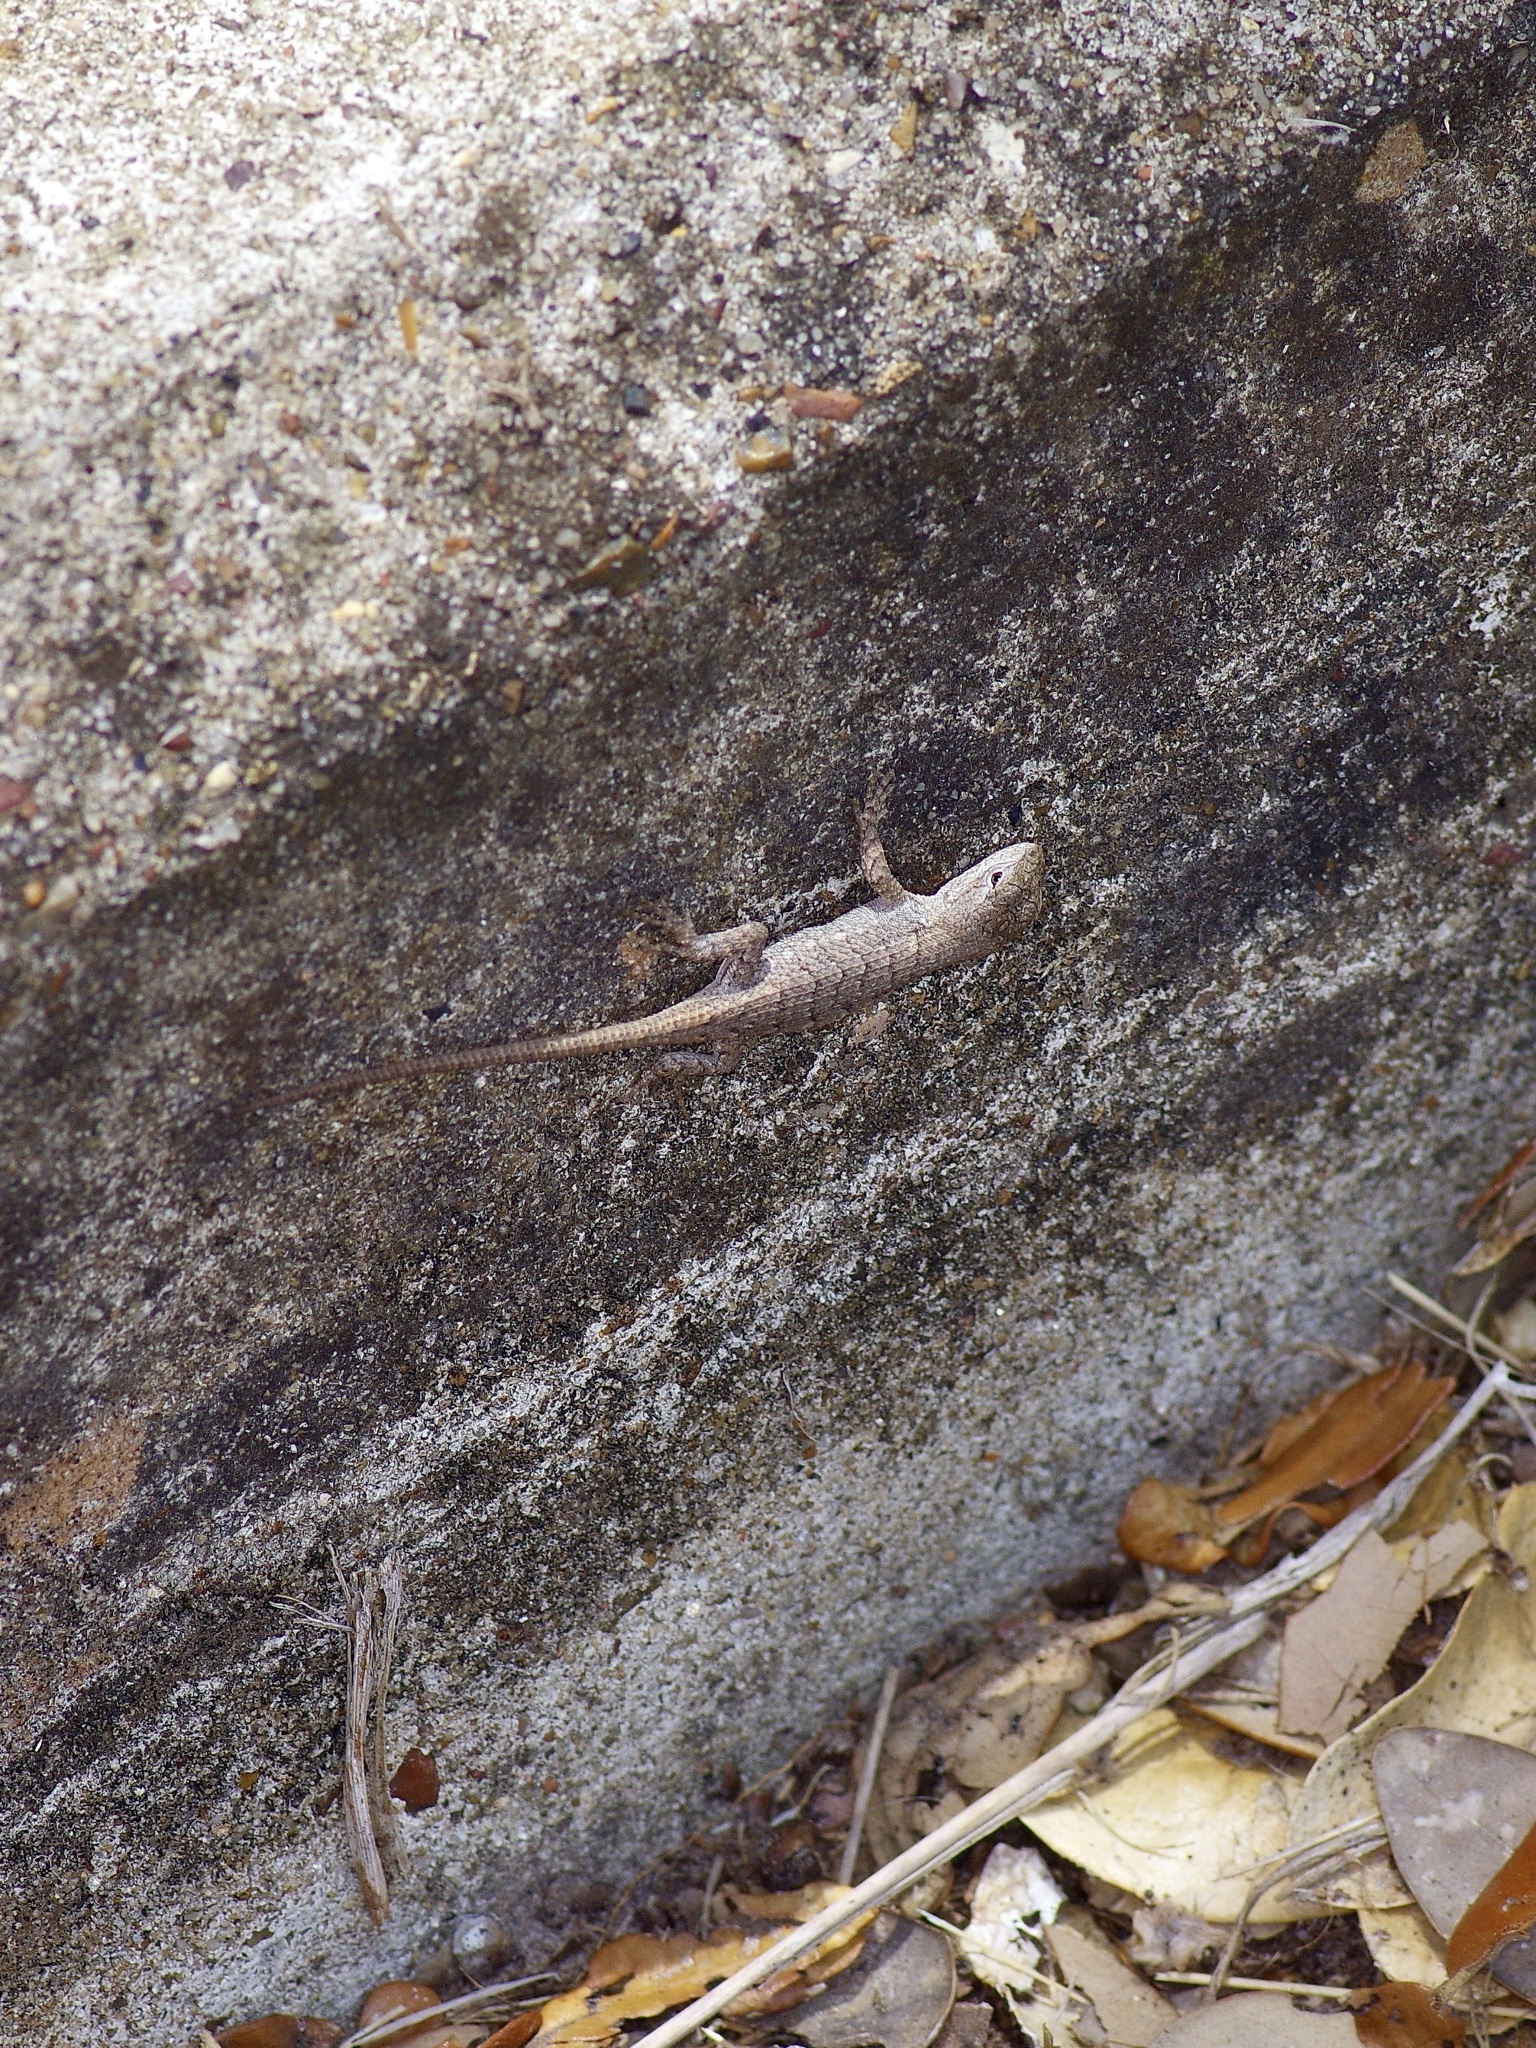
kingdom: Animalia
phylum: Chordata
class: Squamata
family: Phrynosomatidae
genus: Sceloporus
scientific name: Sceloporus consobrinus
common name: Southern prairie lizard
